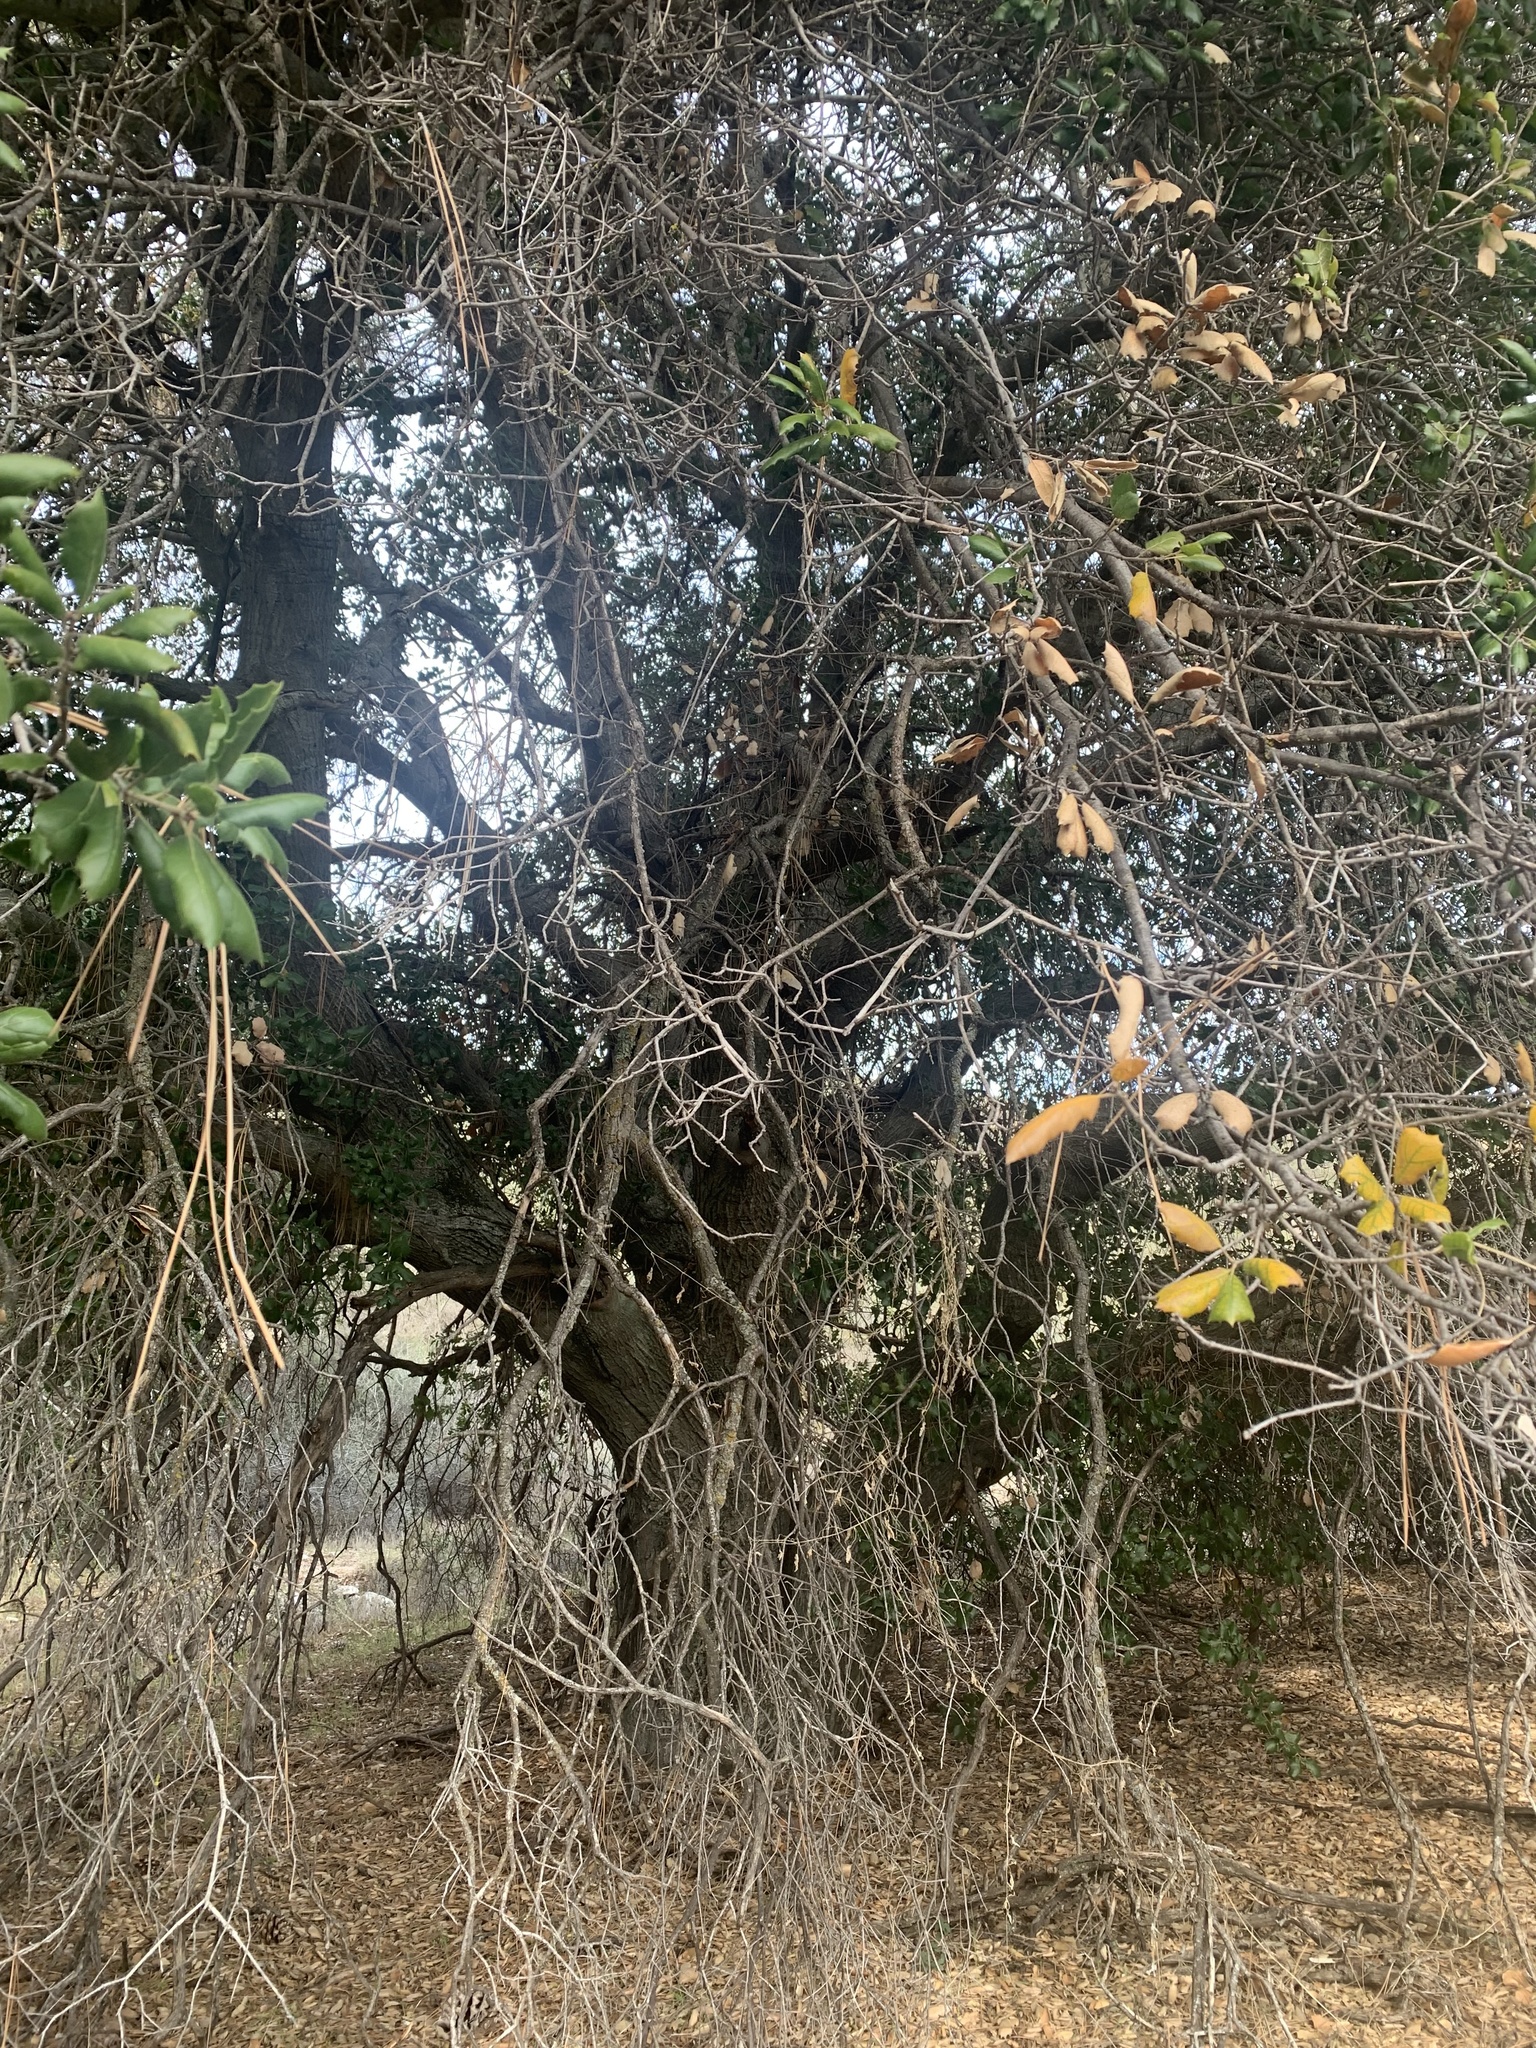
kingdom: Plantae
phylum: Tracheophyta
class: Magnoliopsida
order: Fagales
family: Fagaceae
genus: Quercus
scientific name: Quercus agrifolia
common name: California live oak
